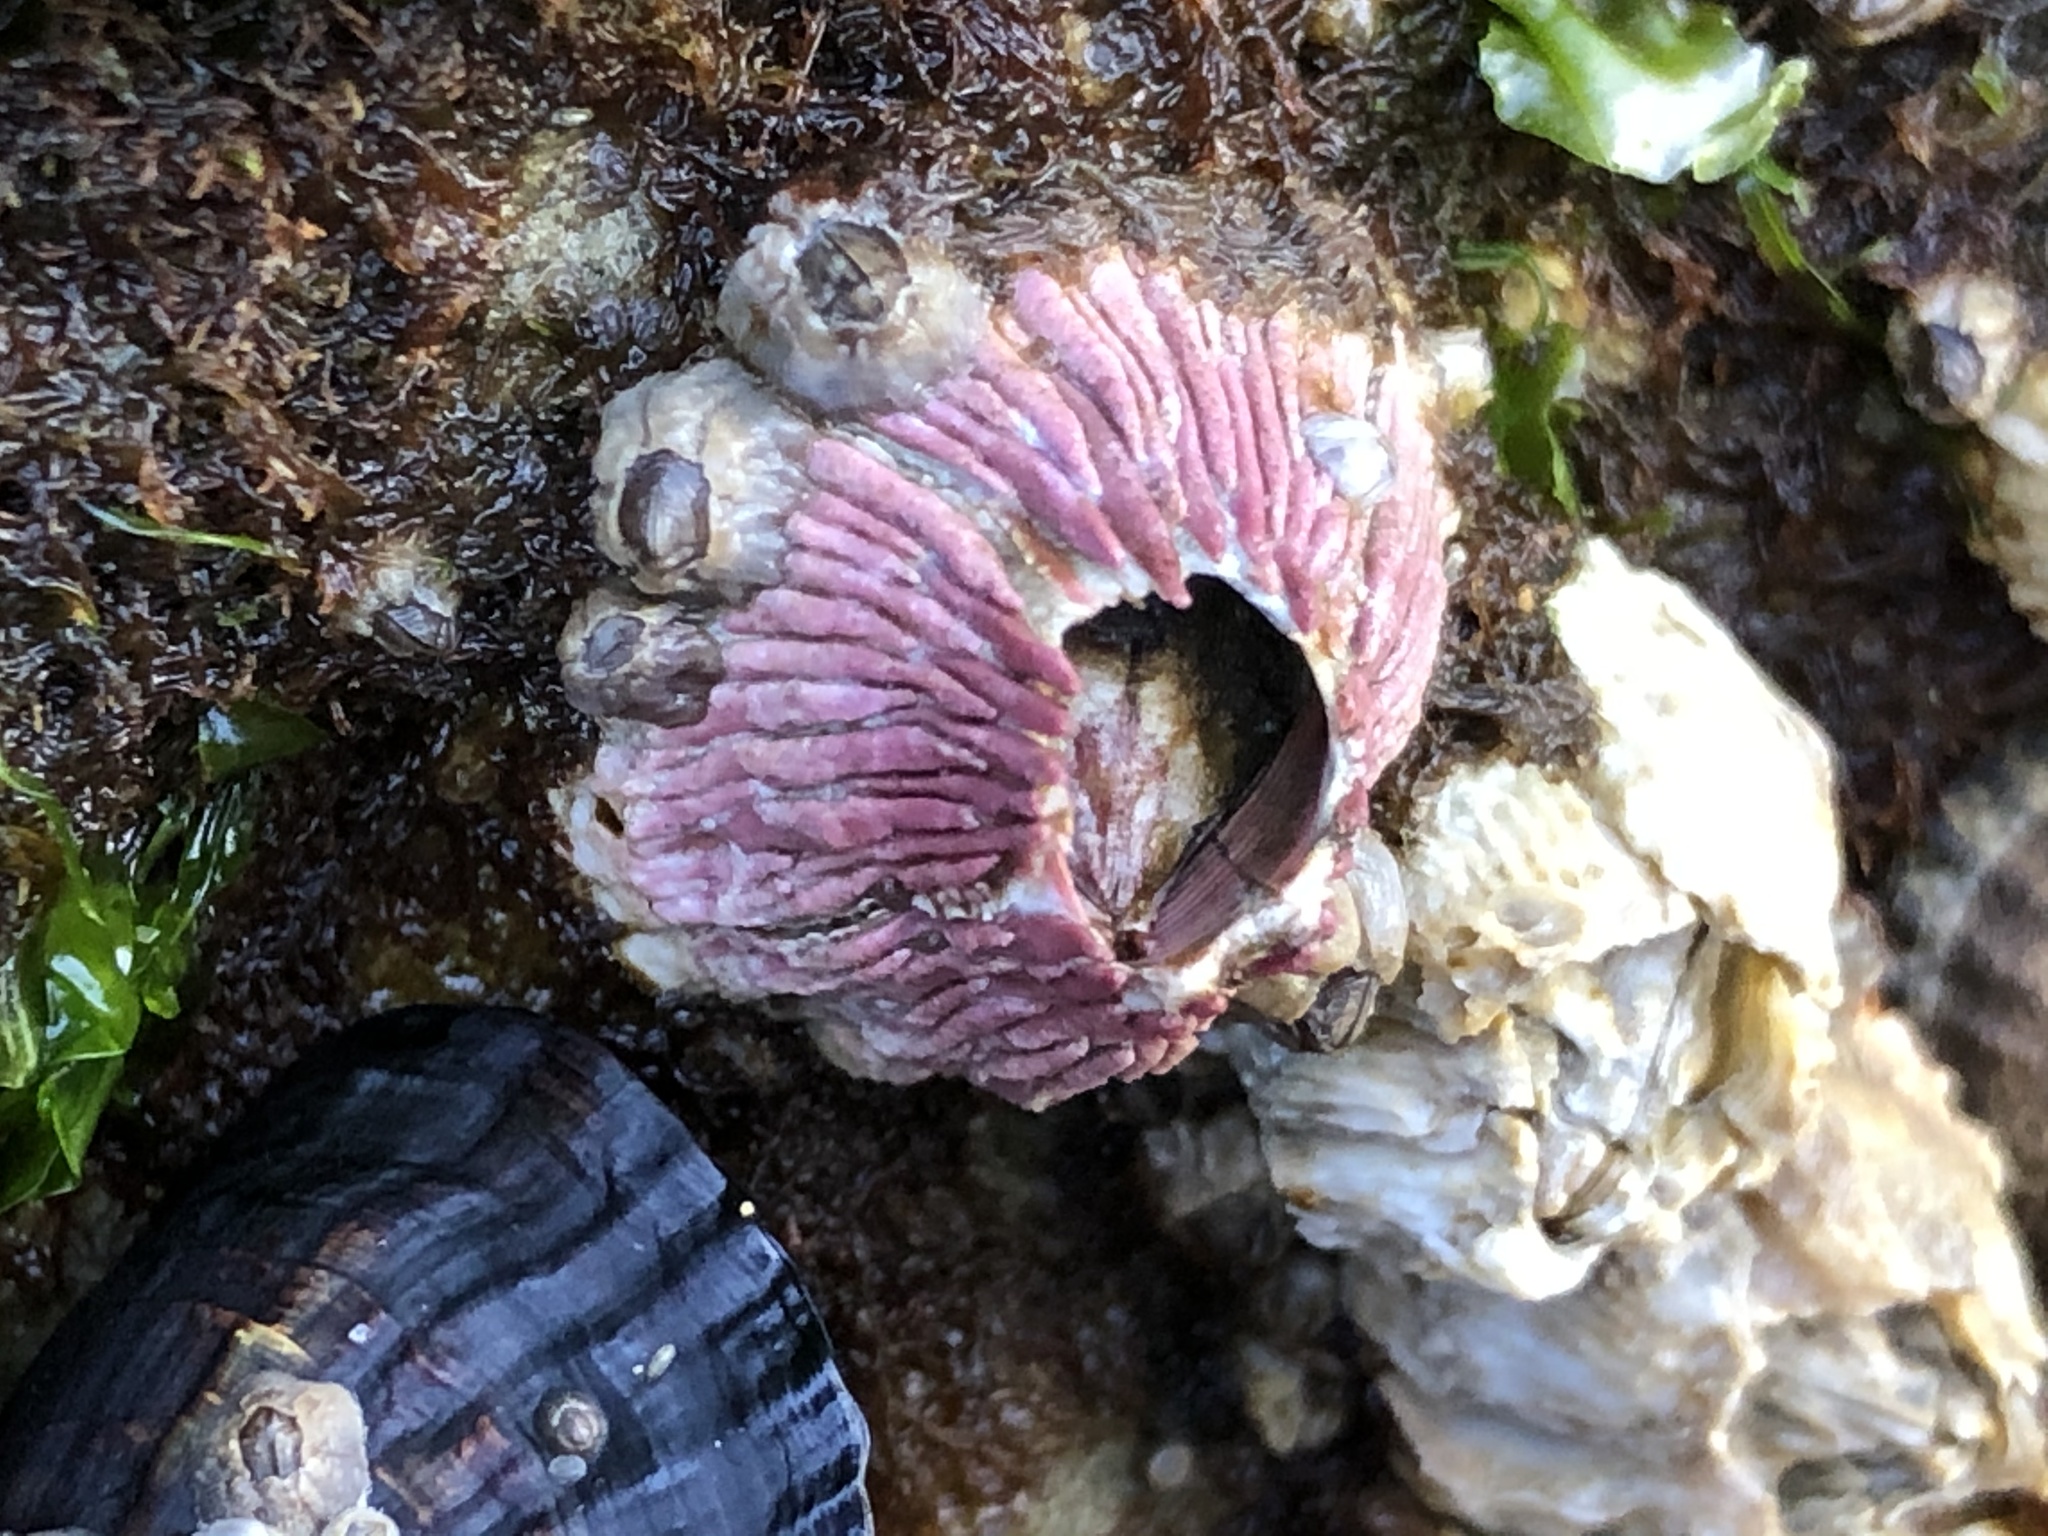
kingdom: Animalia
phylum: Arthropoda
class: Maxillopoda
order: Sessilia
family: Tetraclitidae
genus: Tetraclita
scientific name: Tetraclita rubescens
